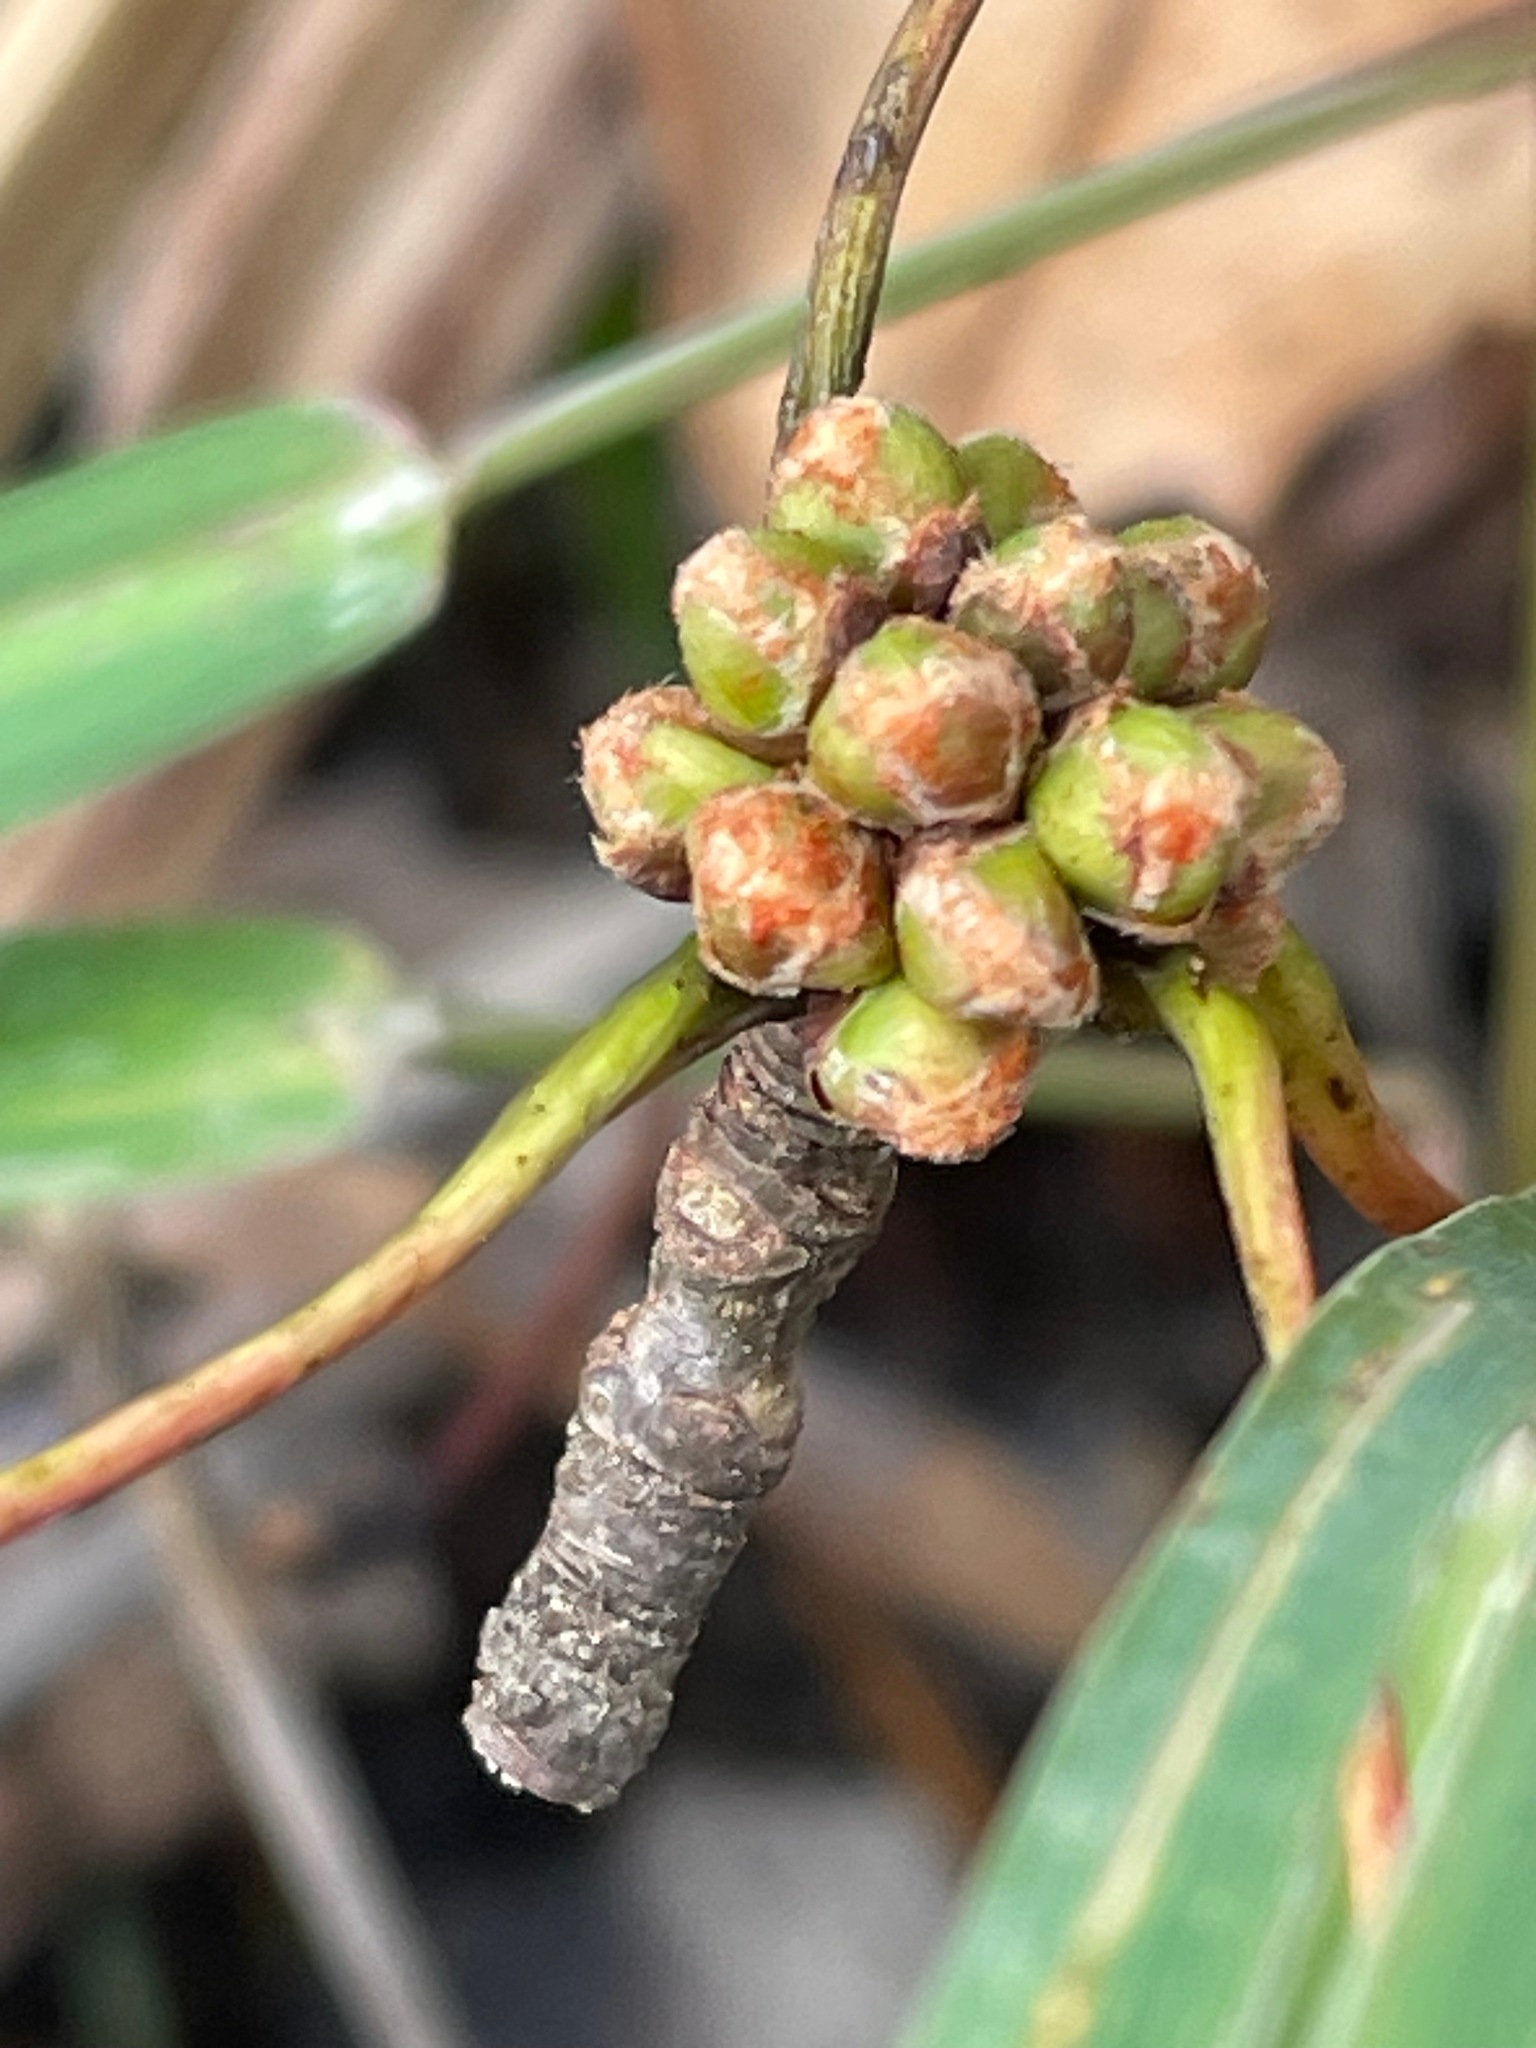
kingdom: Plantae
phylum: Tracheophyta
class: Magnoliopsida
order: Sapindales
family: Sapindaceae
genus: Acer
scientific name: Acer saccharinum
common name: Silver maple
